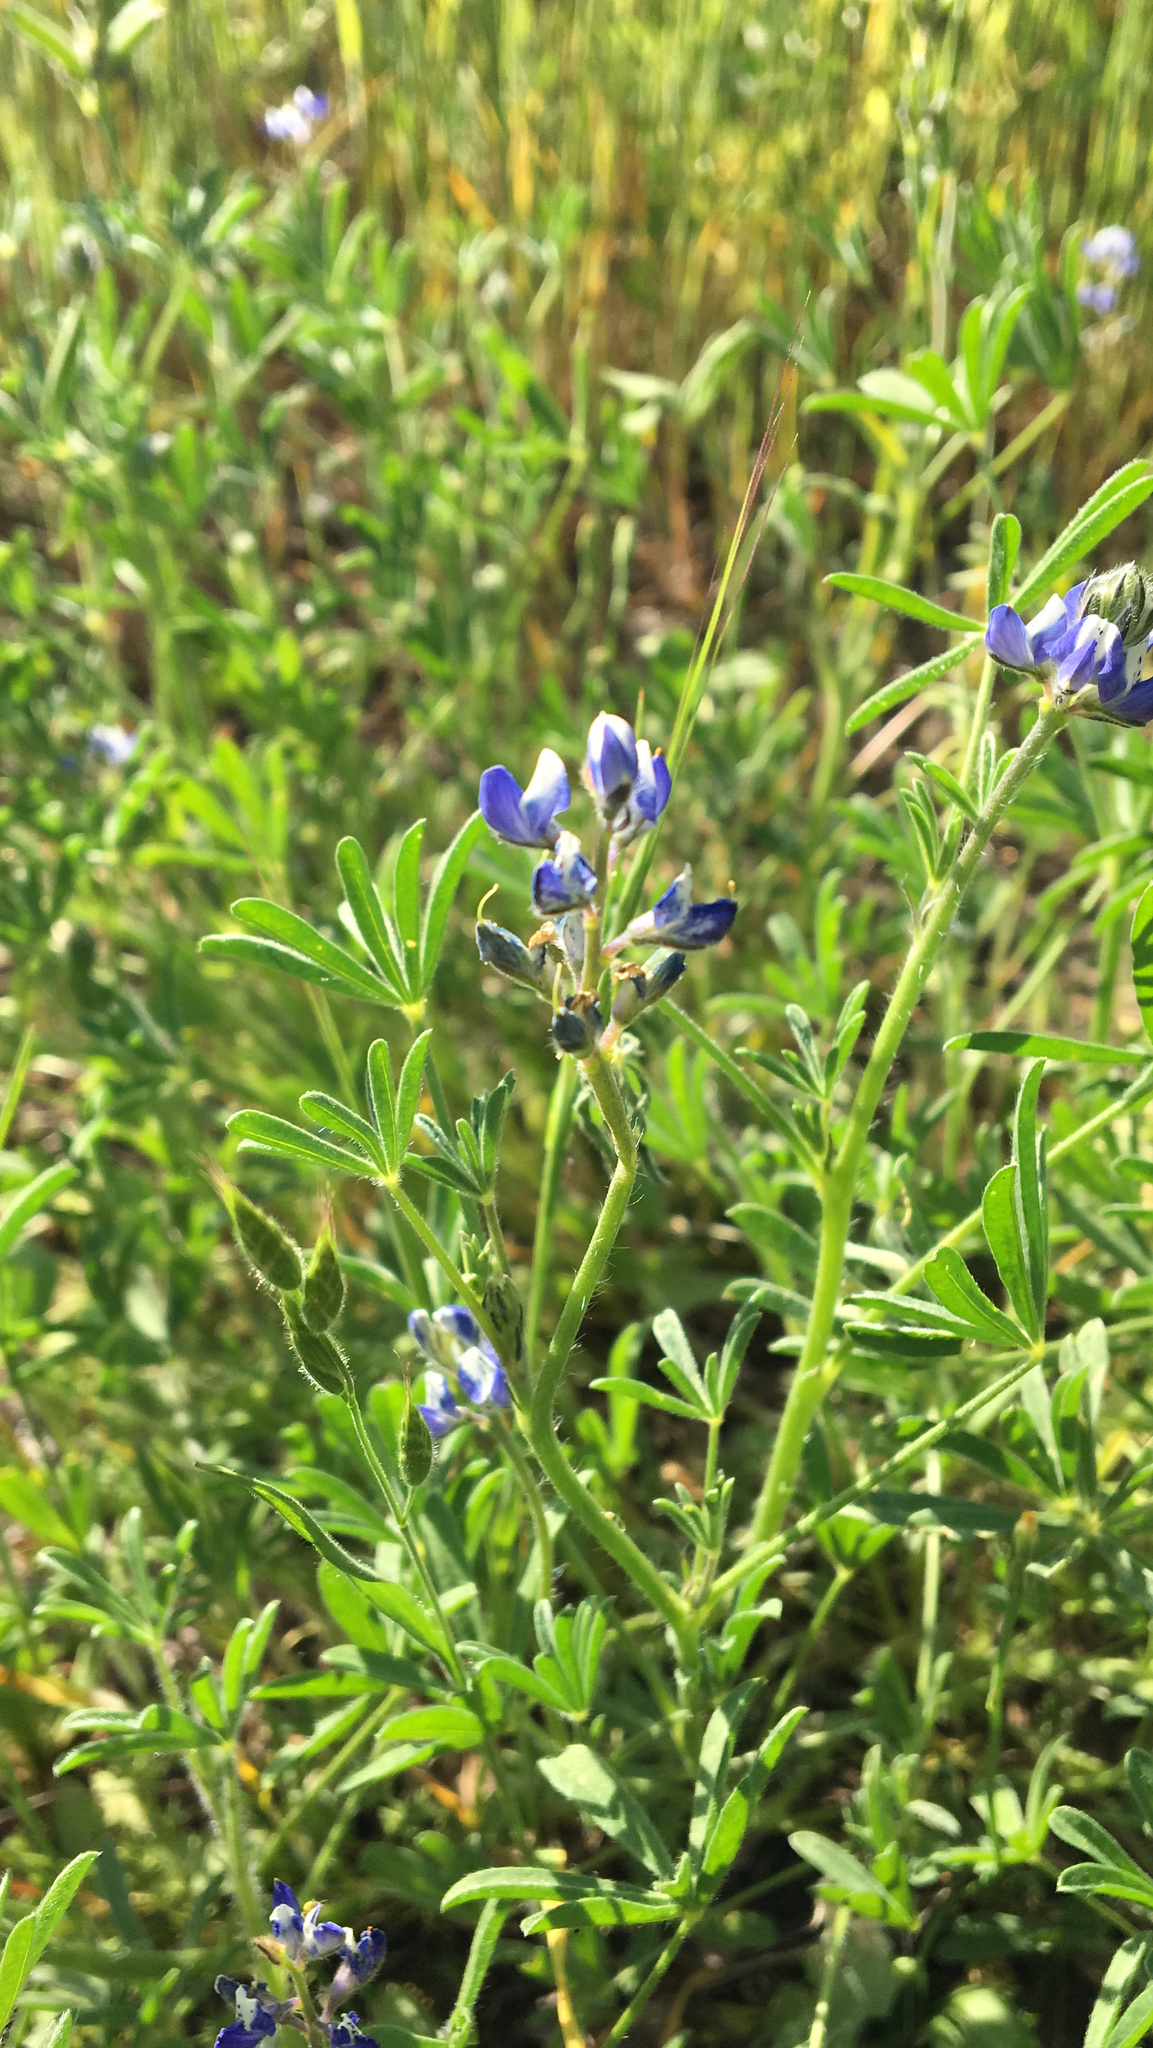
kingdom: Plantae
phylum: Tracheophyta
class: Magnoliopsida
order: Fabales
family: Fabaceae
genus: Lupinus
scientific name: Lupinus bicolor
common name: Miniature lupine
